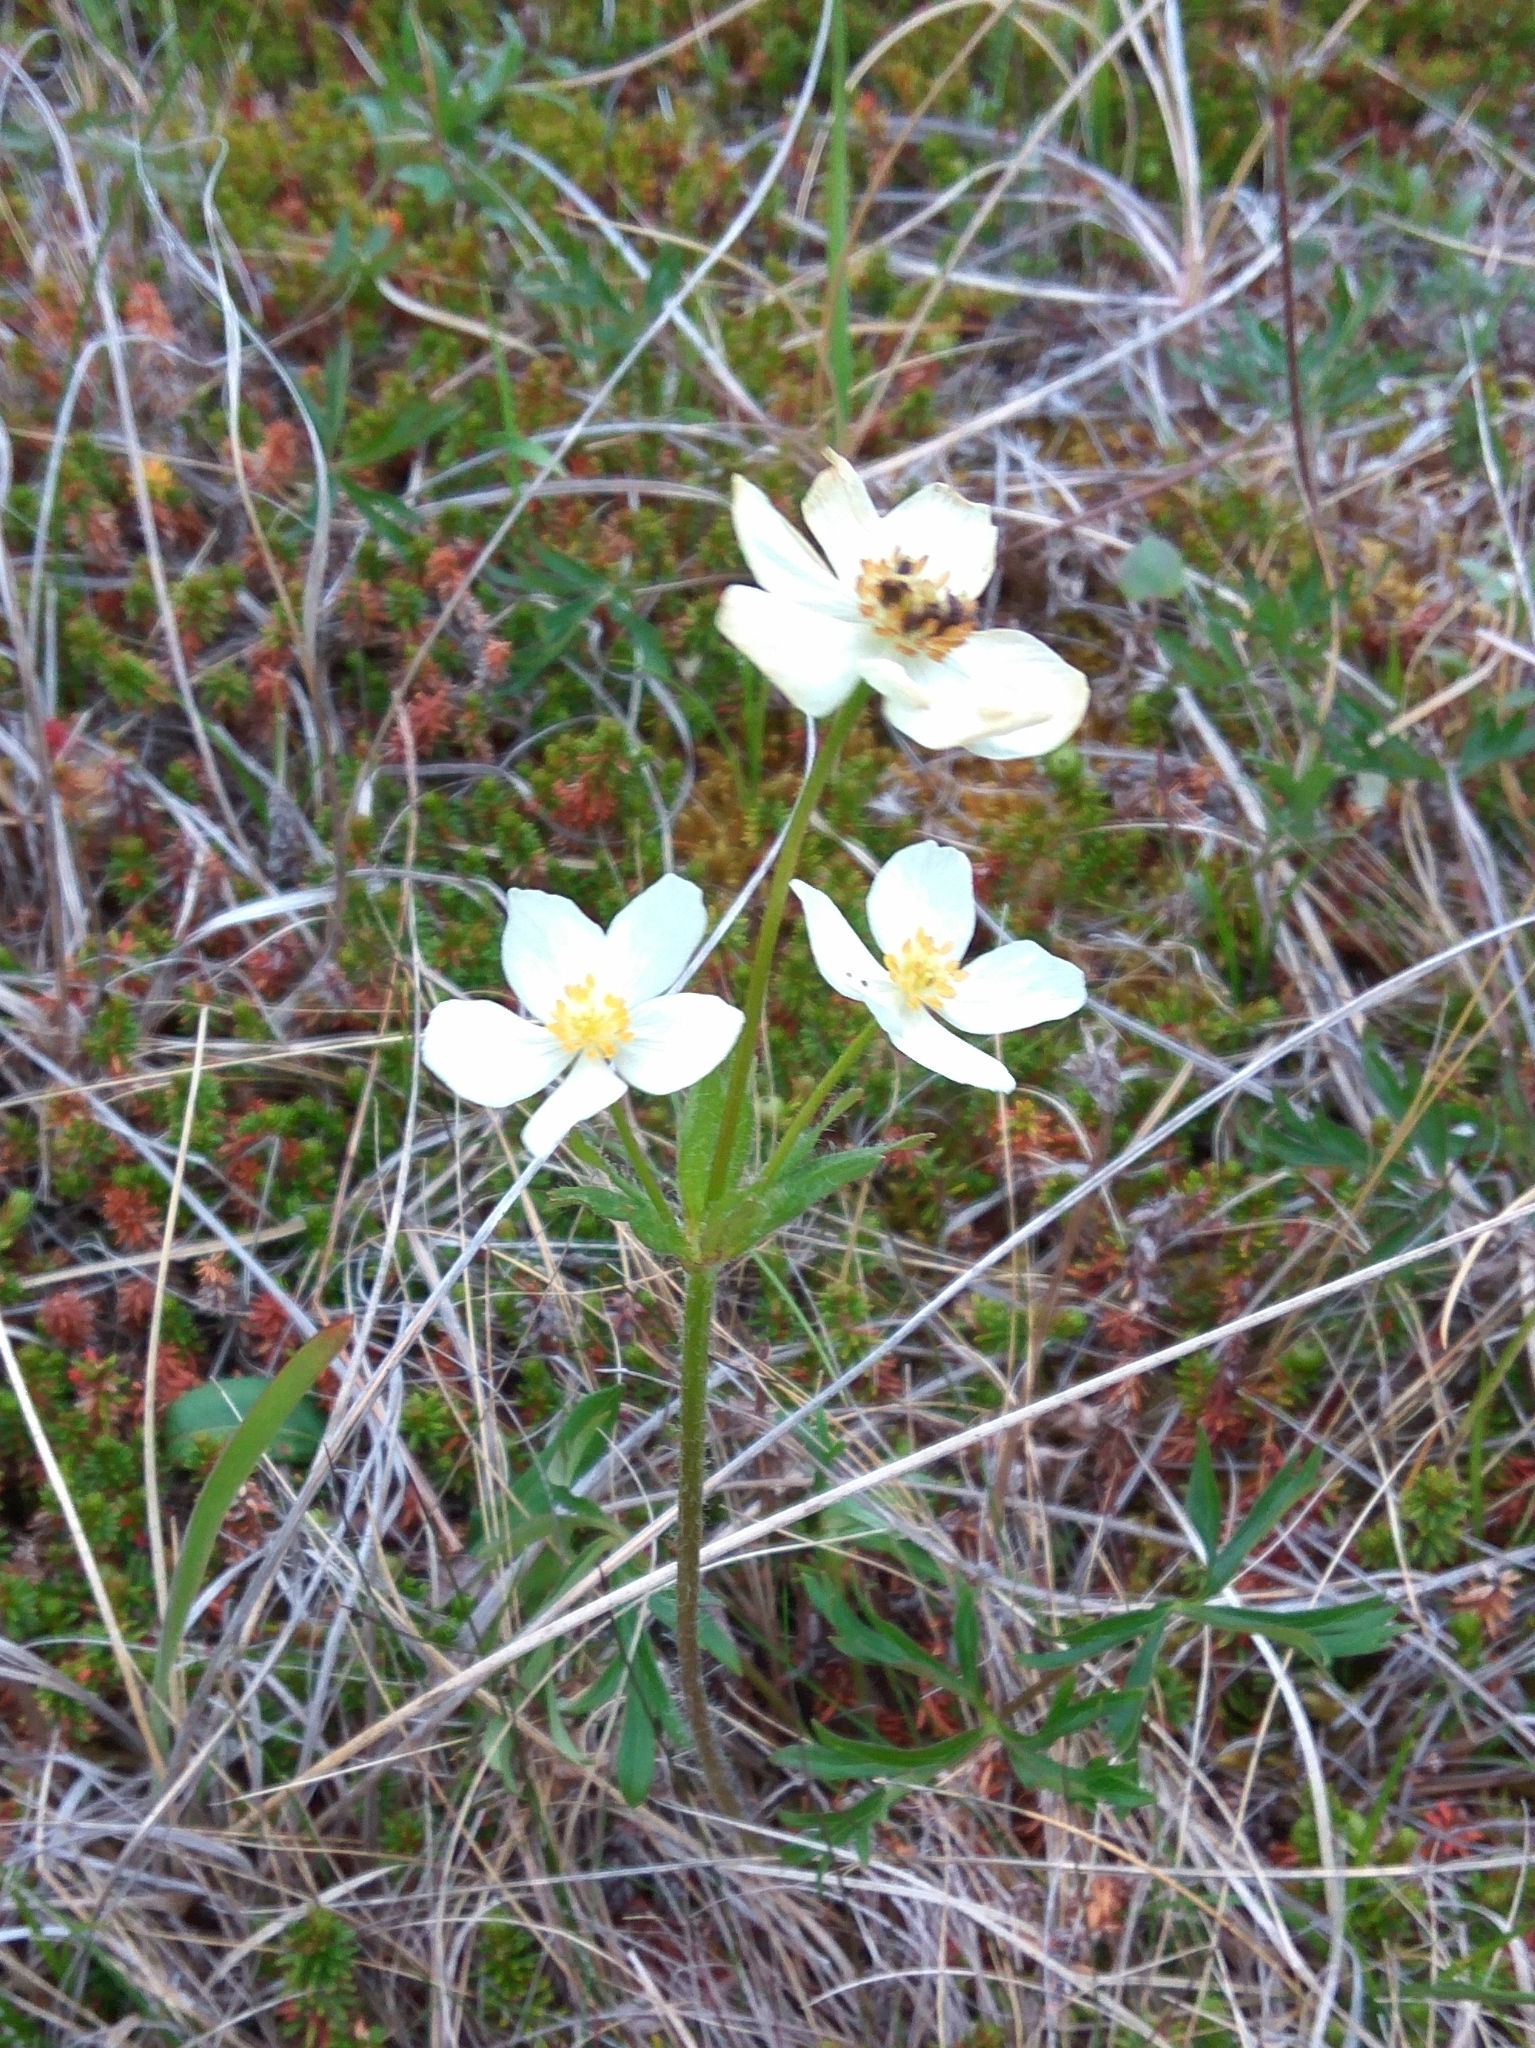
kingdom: Plantae
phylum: Tracheophyta
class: Magnoliopsida
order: Ranunculales
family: Ranunculaceae
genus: Anemonastrum
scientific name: Anemonastrum narcissiflorum
